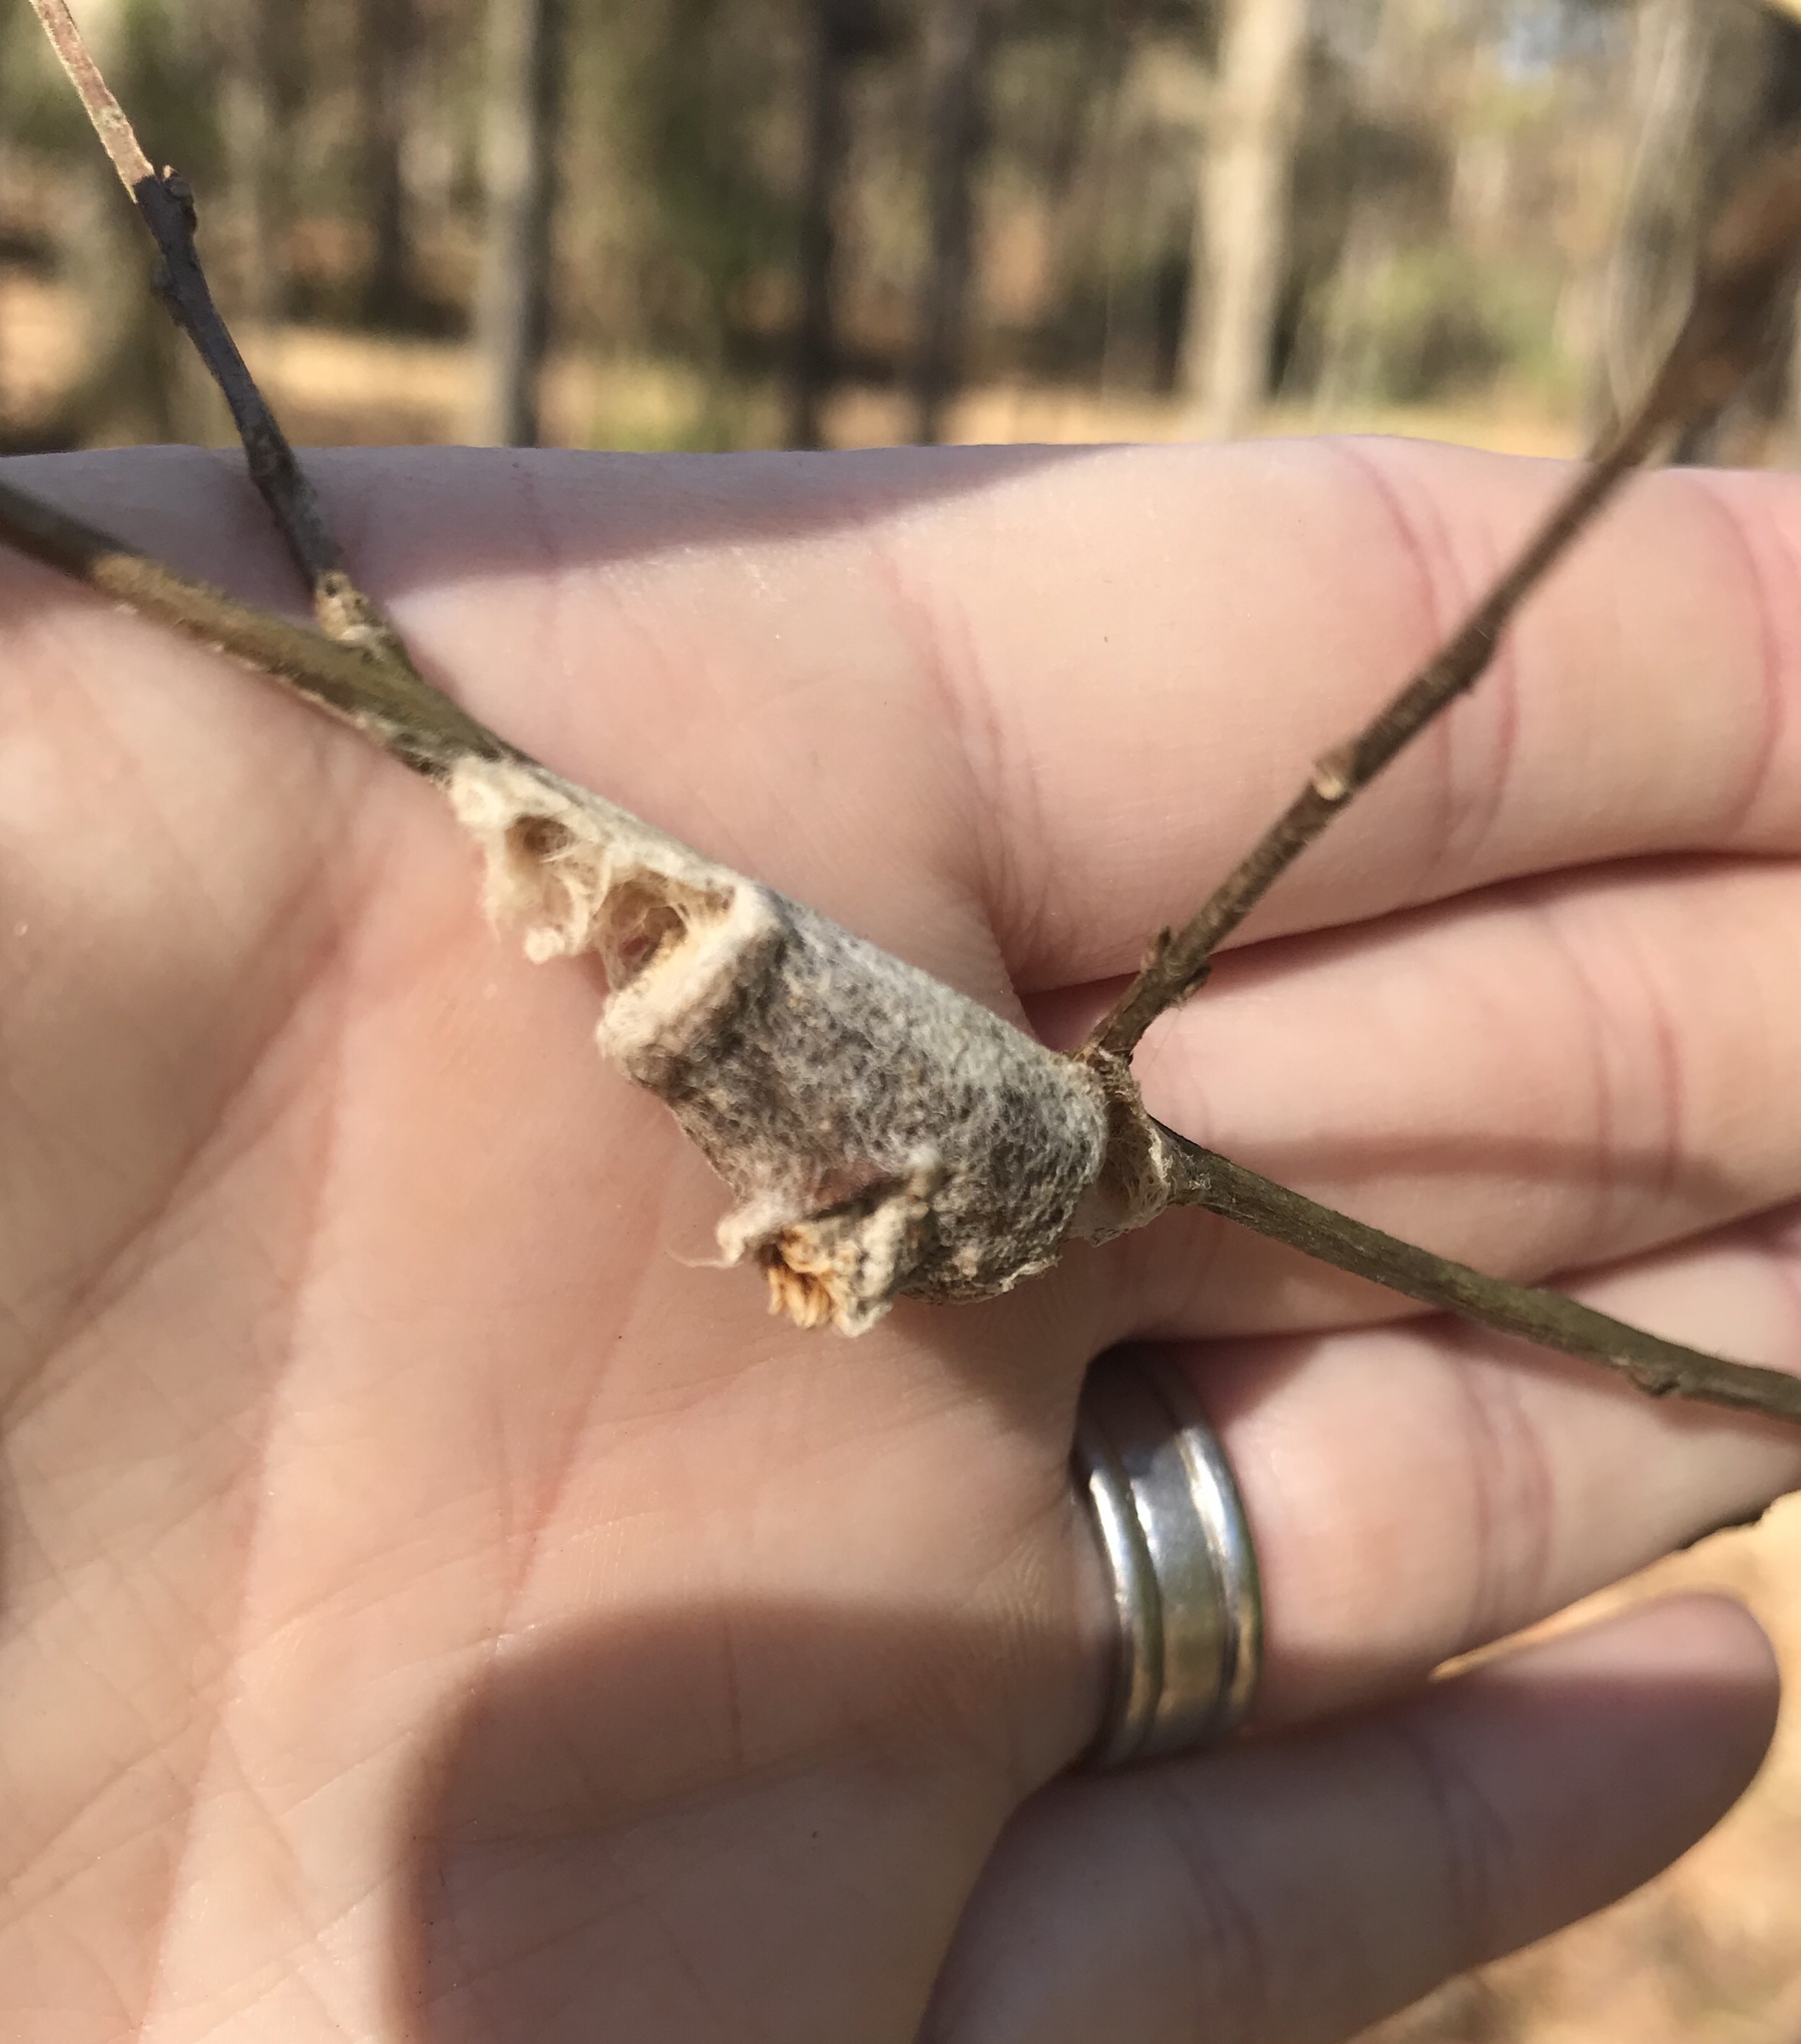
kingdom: Animalia
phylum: Arthropoda
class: Insecta
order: Lepidoptera
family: Megalopygidae
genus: Megalopyge
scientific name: Megalopyge
